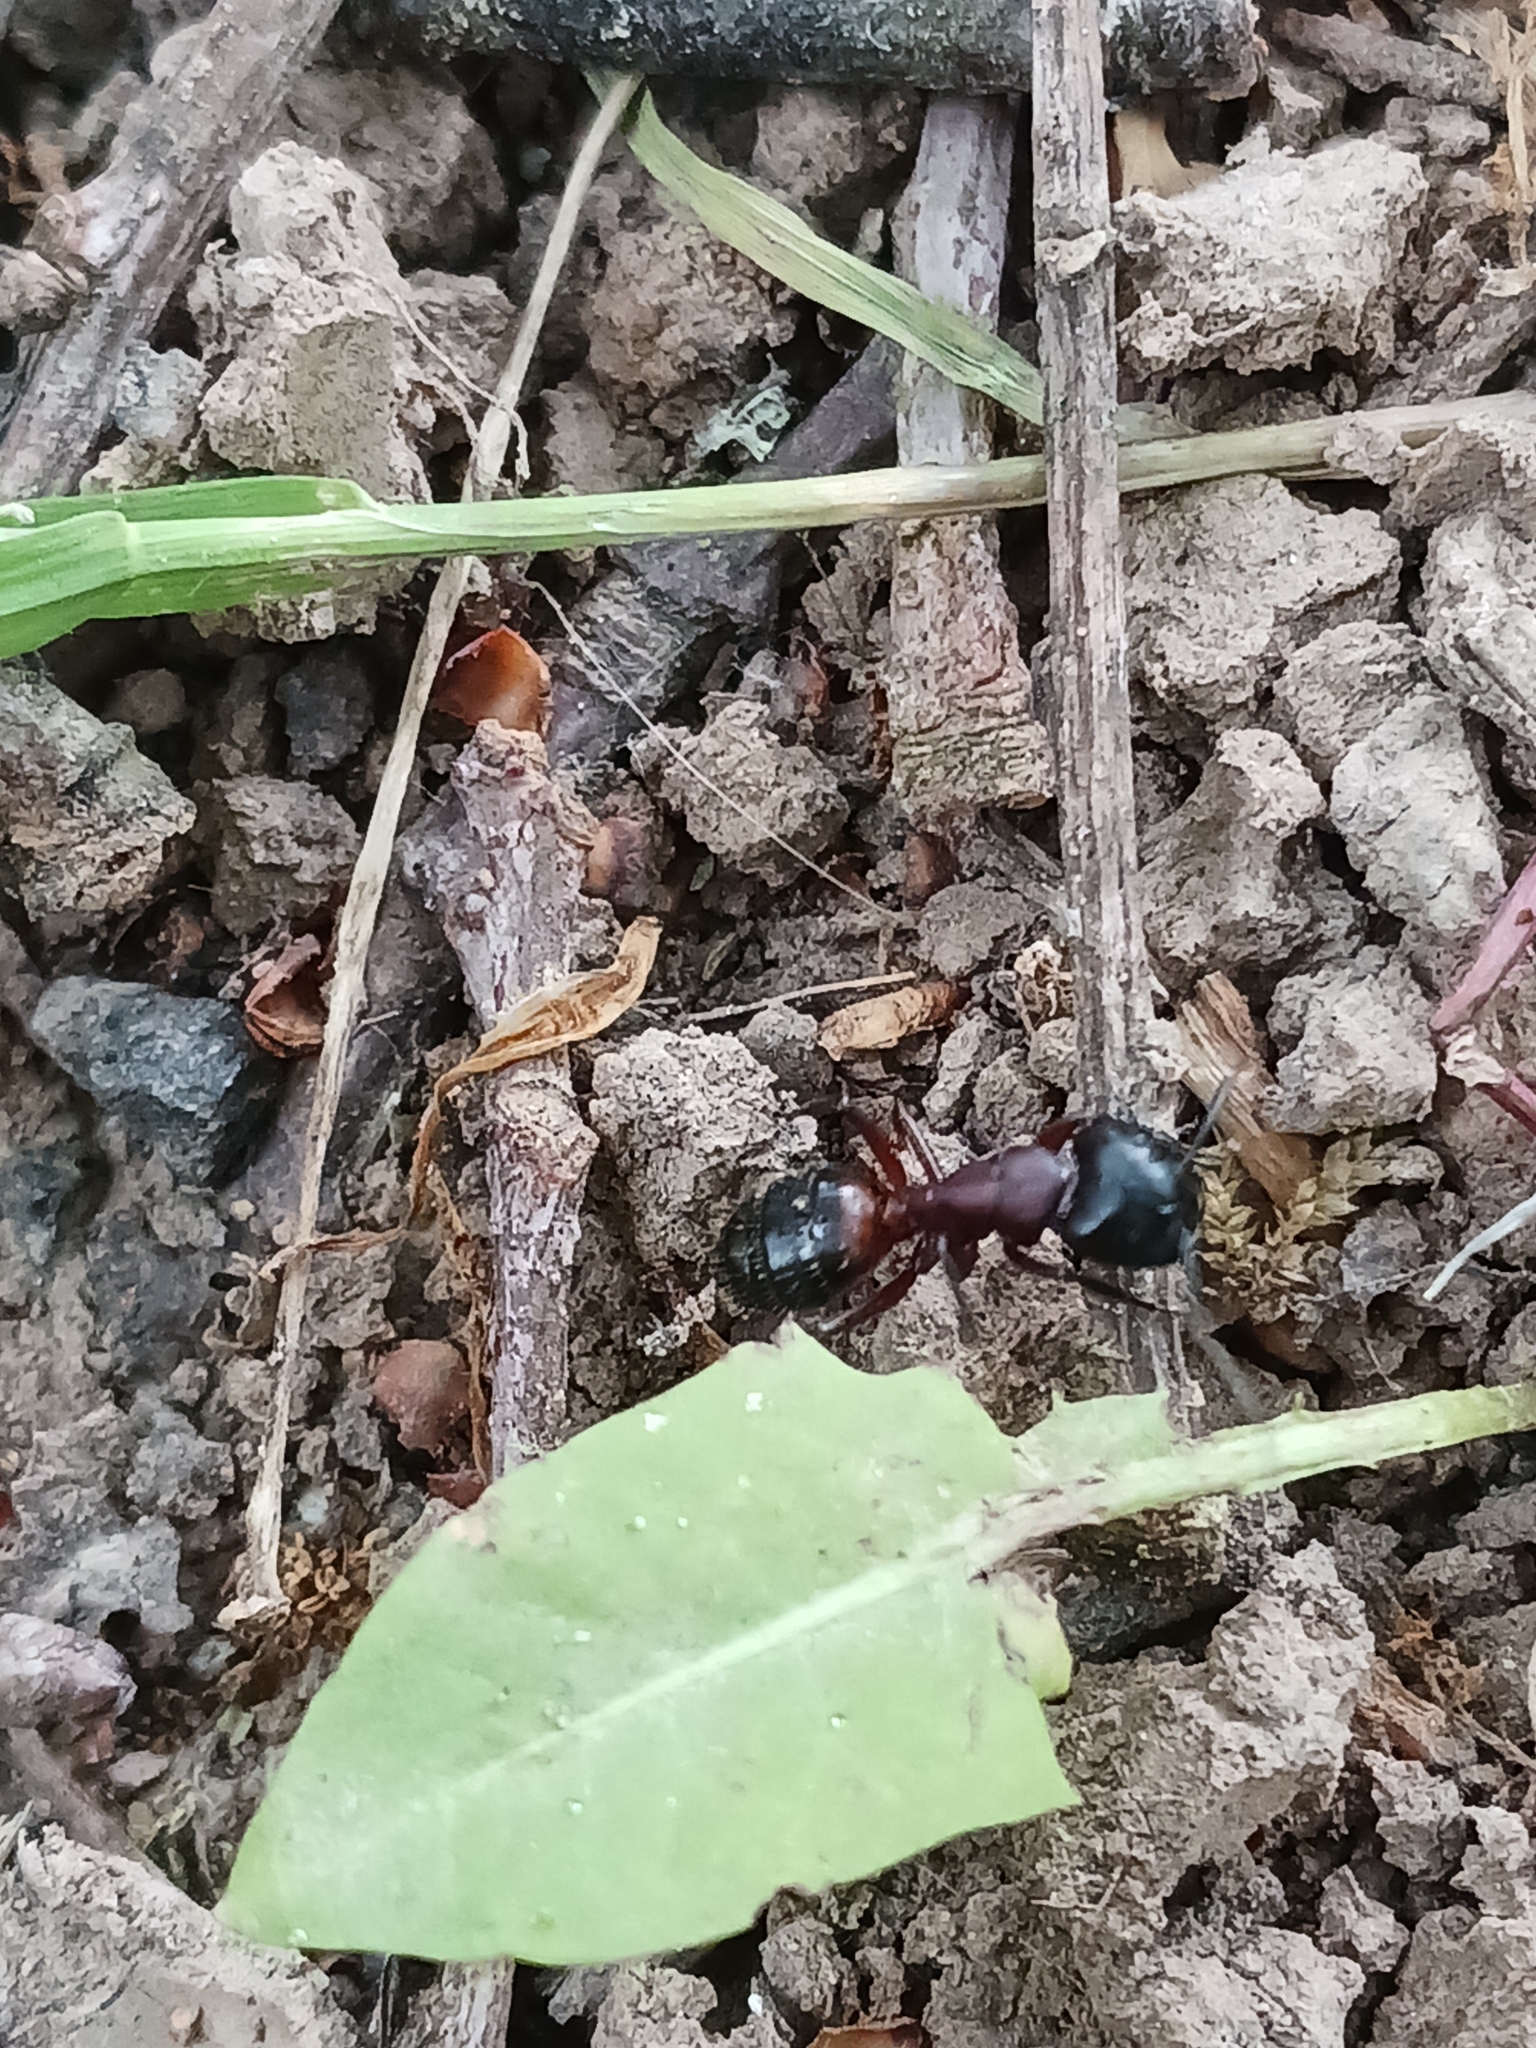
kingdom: Animalia
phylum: Arthropoda
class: Insecta
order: Hymenoptera
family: Formicidae
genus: Camponotus
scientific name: Camponotus ligniperdus
